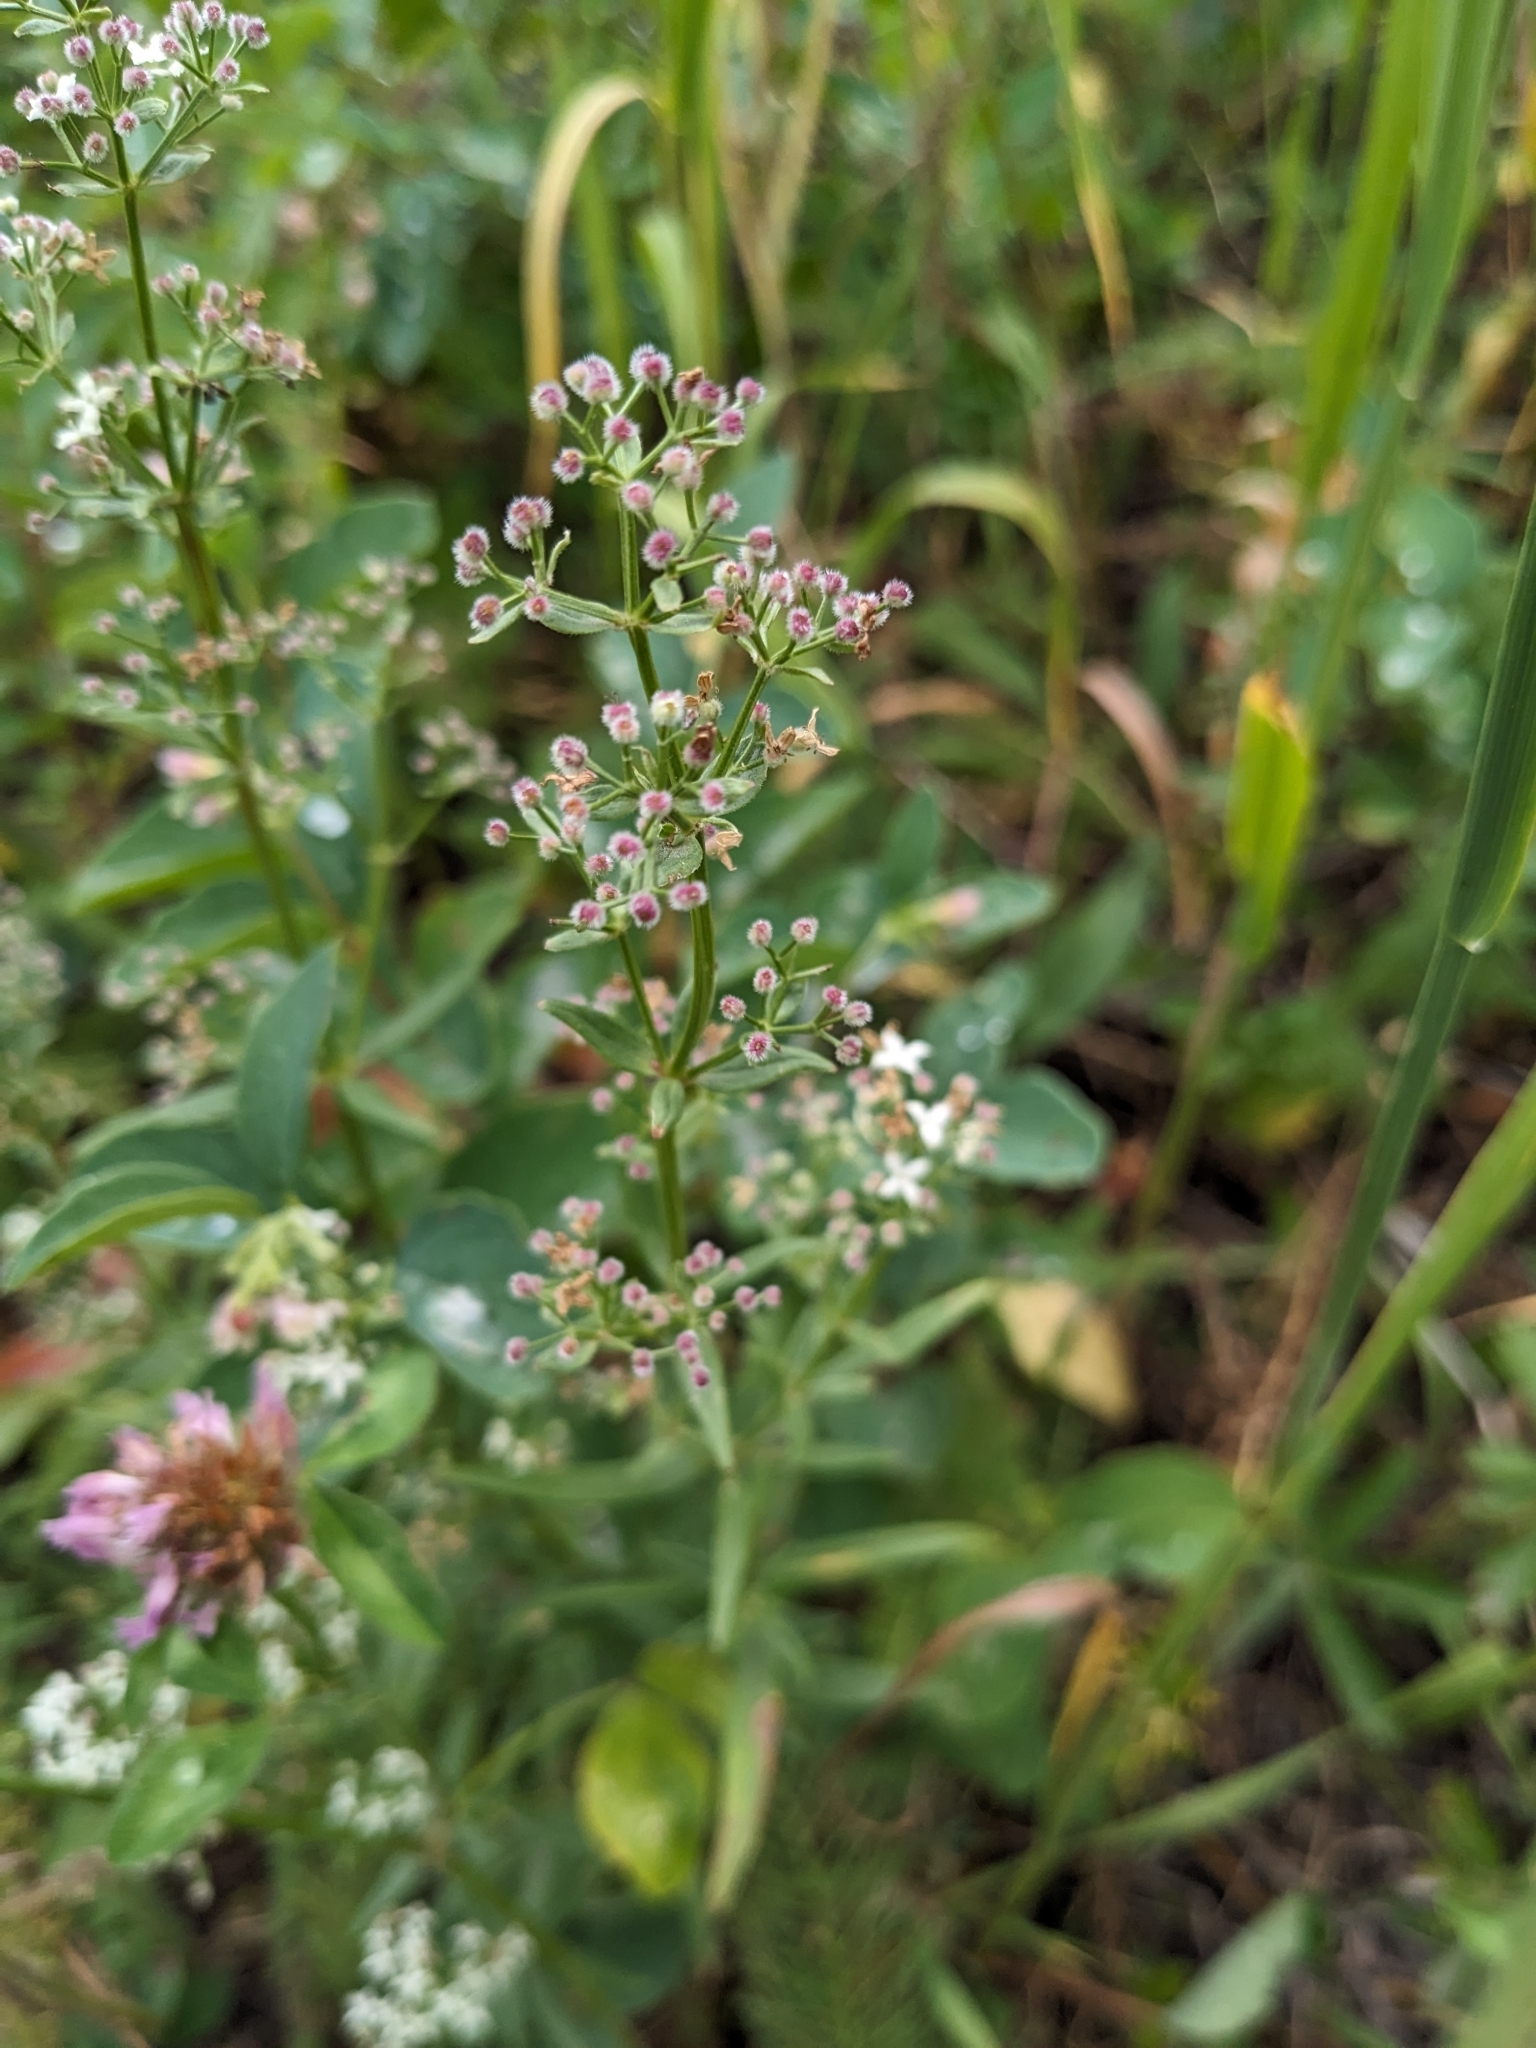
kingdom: Plantae
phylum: Tracheophyta
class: Magnoliopsida
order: Gentianales
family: Rubiaceae
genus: Galium
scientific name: Galium boreale
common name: Northern bedstraw
